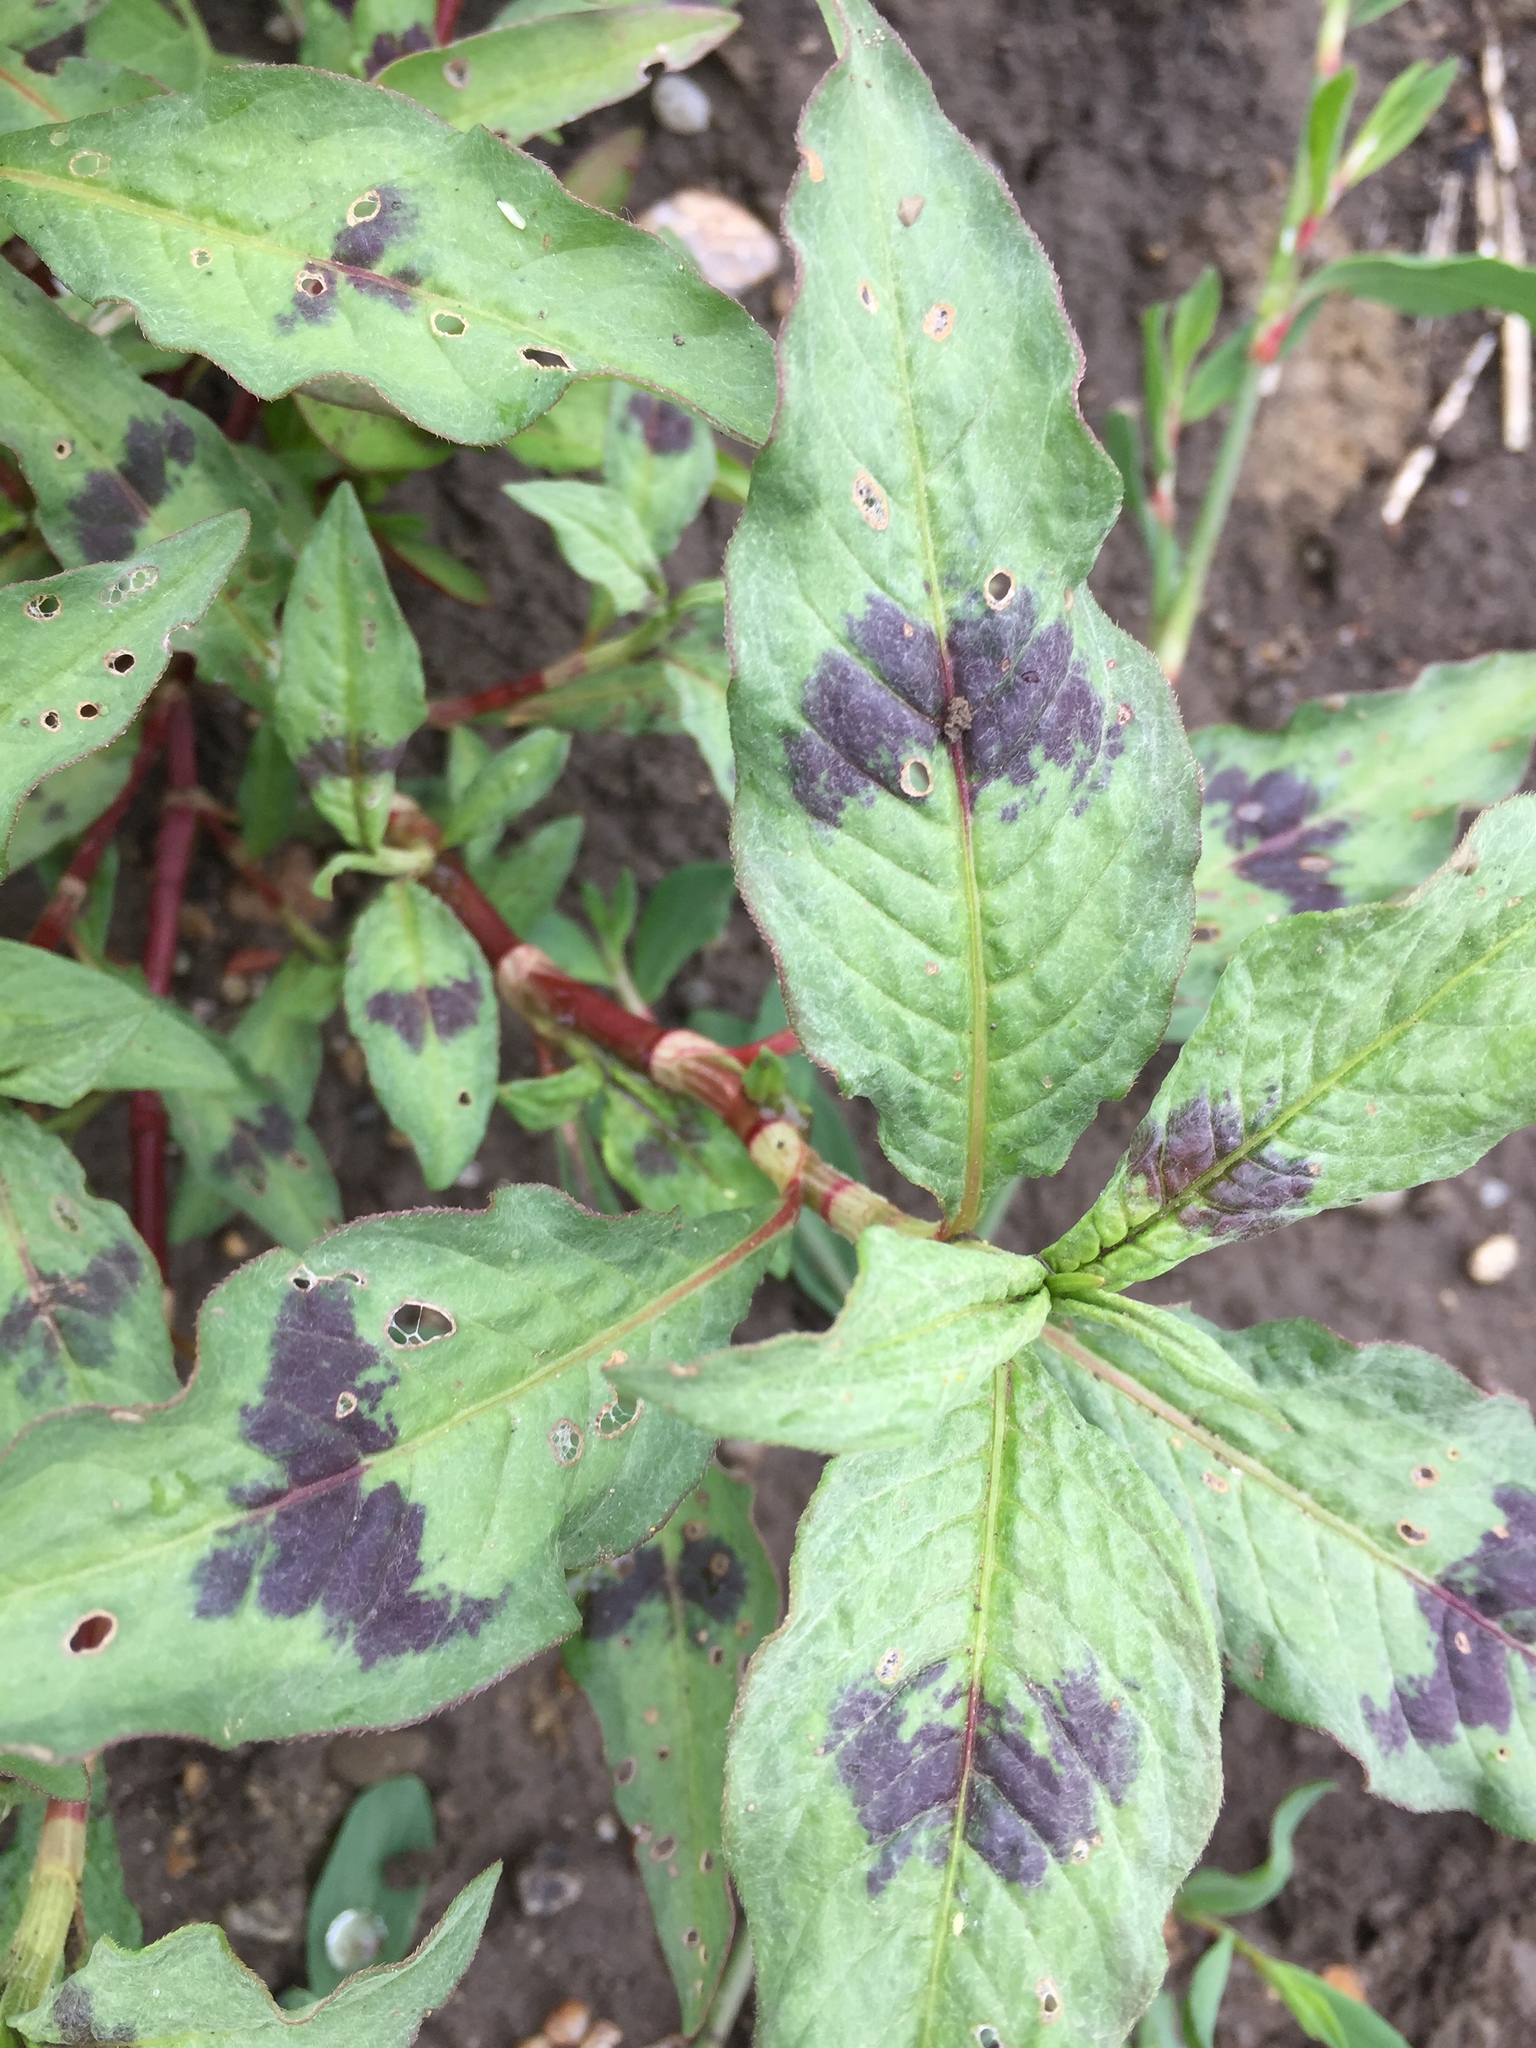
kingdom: Plantae
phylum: Tracheophyta
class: Magnoliopsida
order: Caryophyllales
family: Polygonaceae
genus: Persicaria
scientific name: Persicaria maculosa
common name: Redshank
